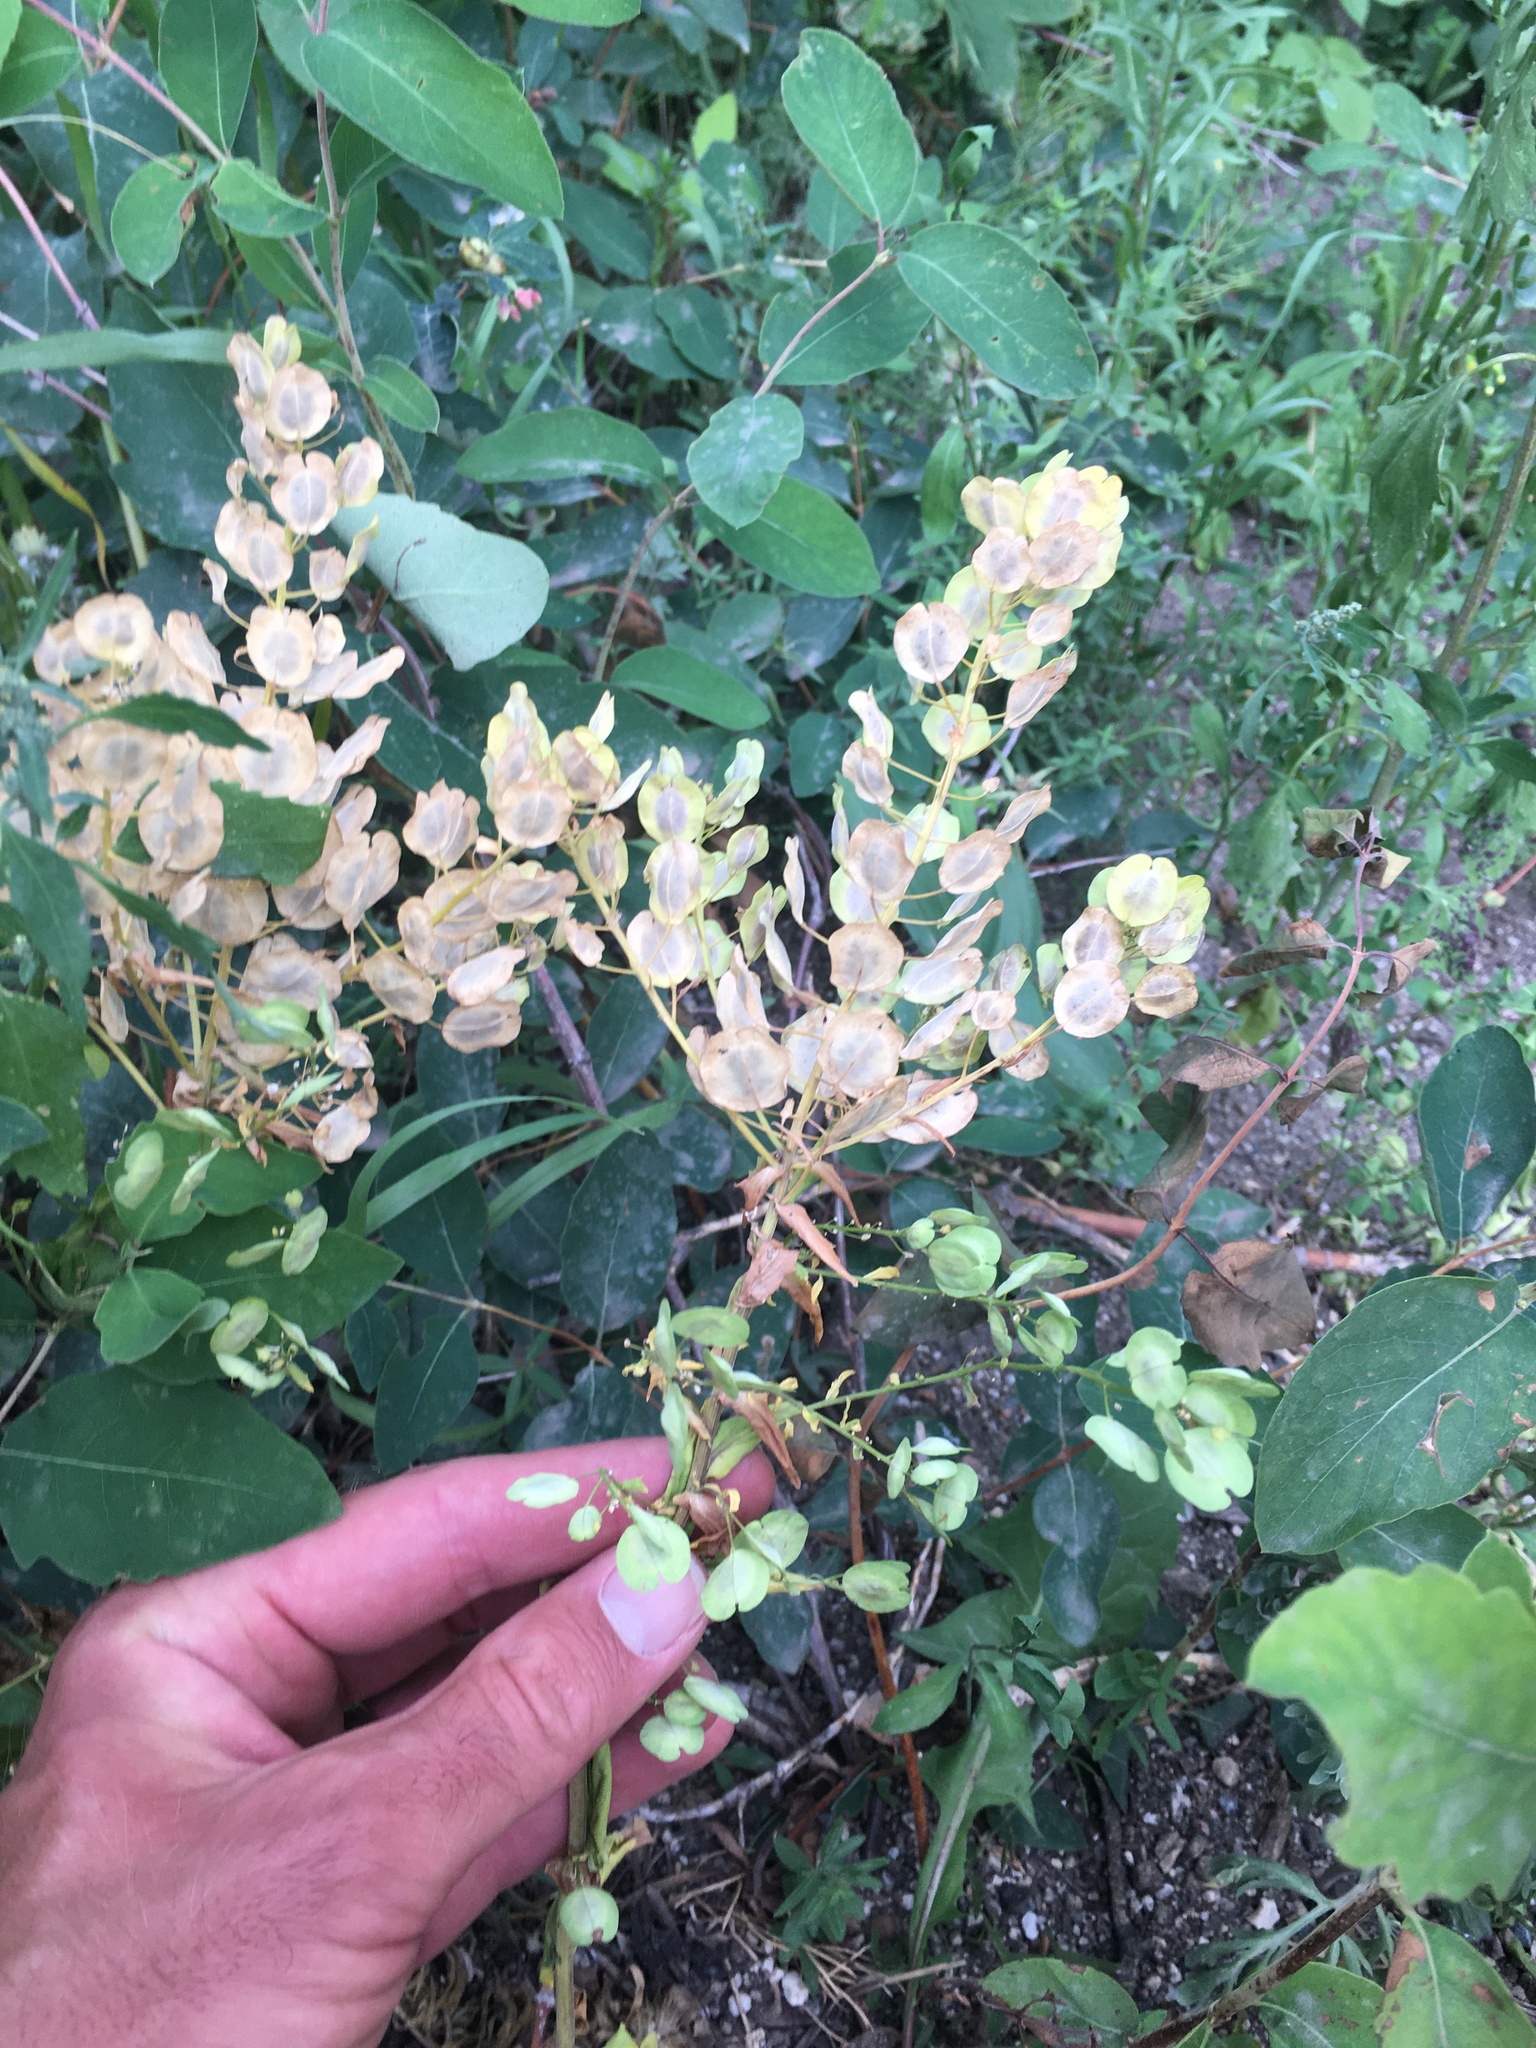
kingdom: Plantae
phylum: Tracheophyta
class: Magnoliopsida
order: Brassicales
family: Brassicaceae
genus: Thlaspi
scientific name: Thlaspi arvense
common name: Field pennycress
